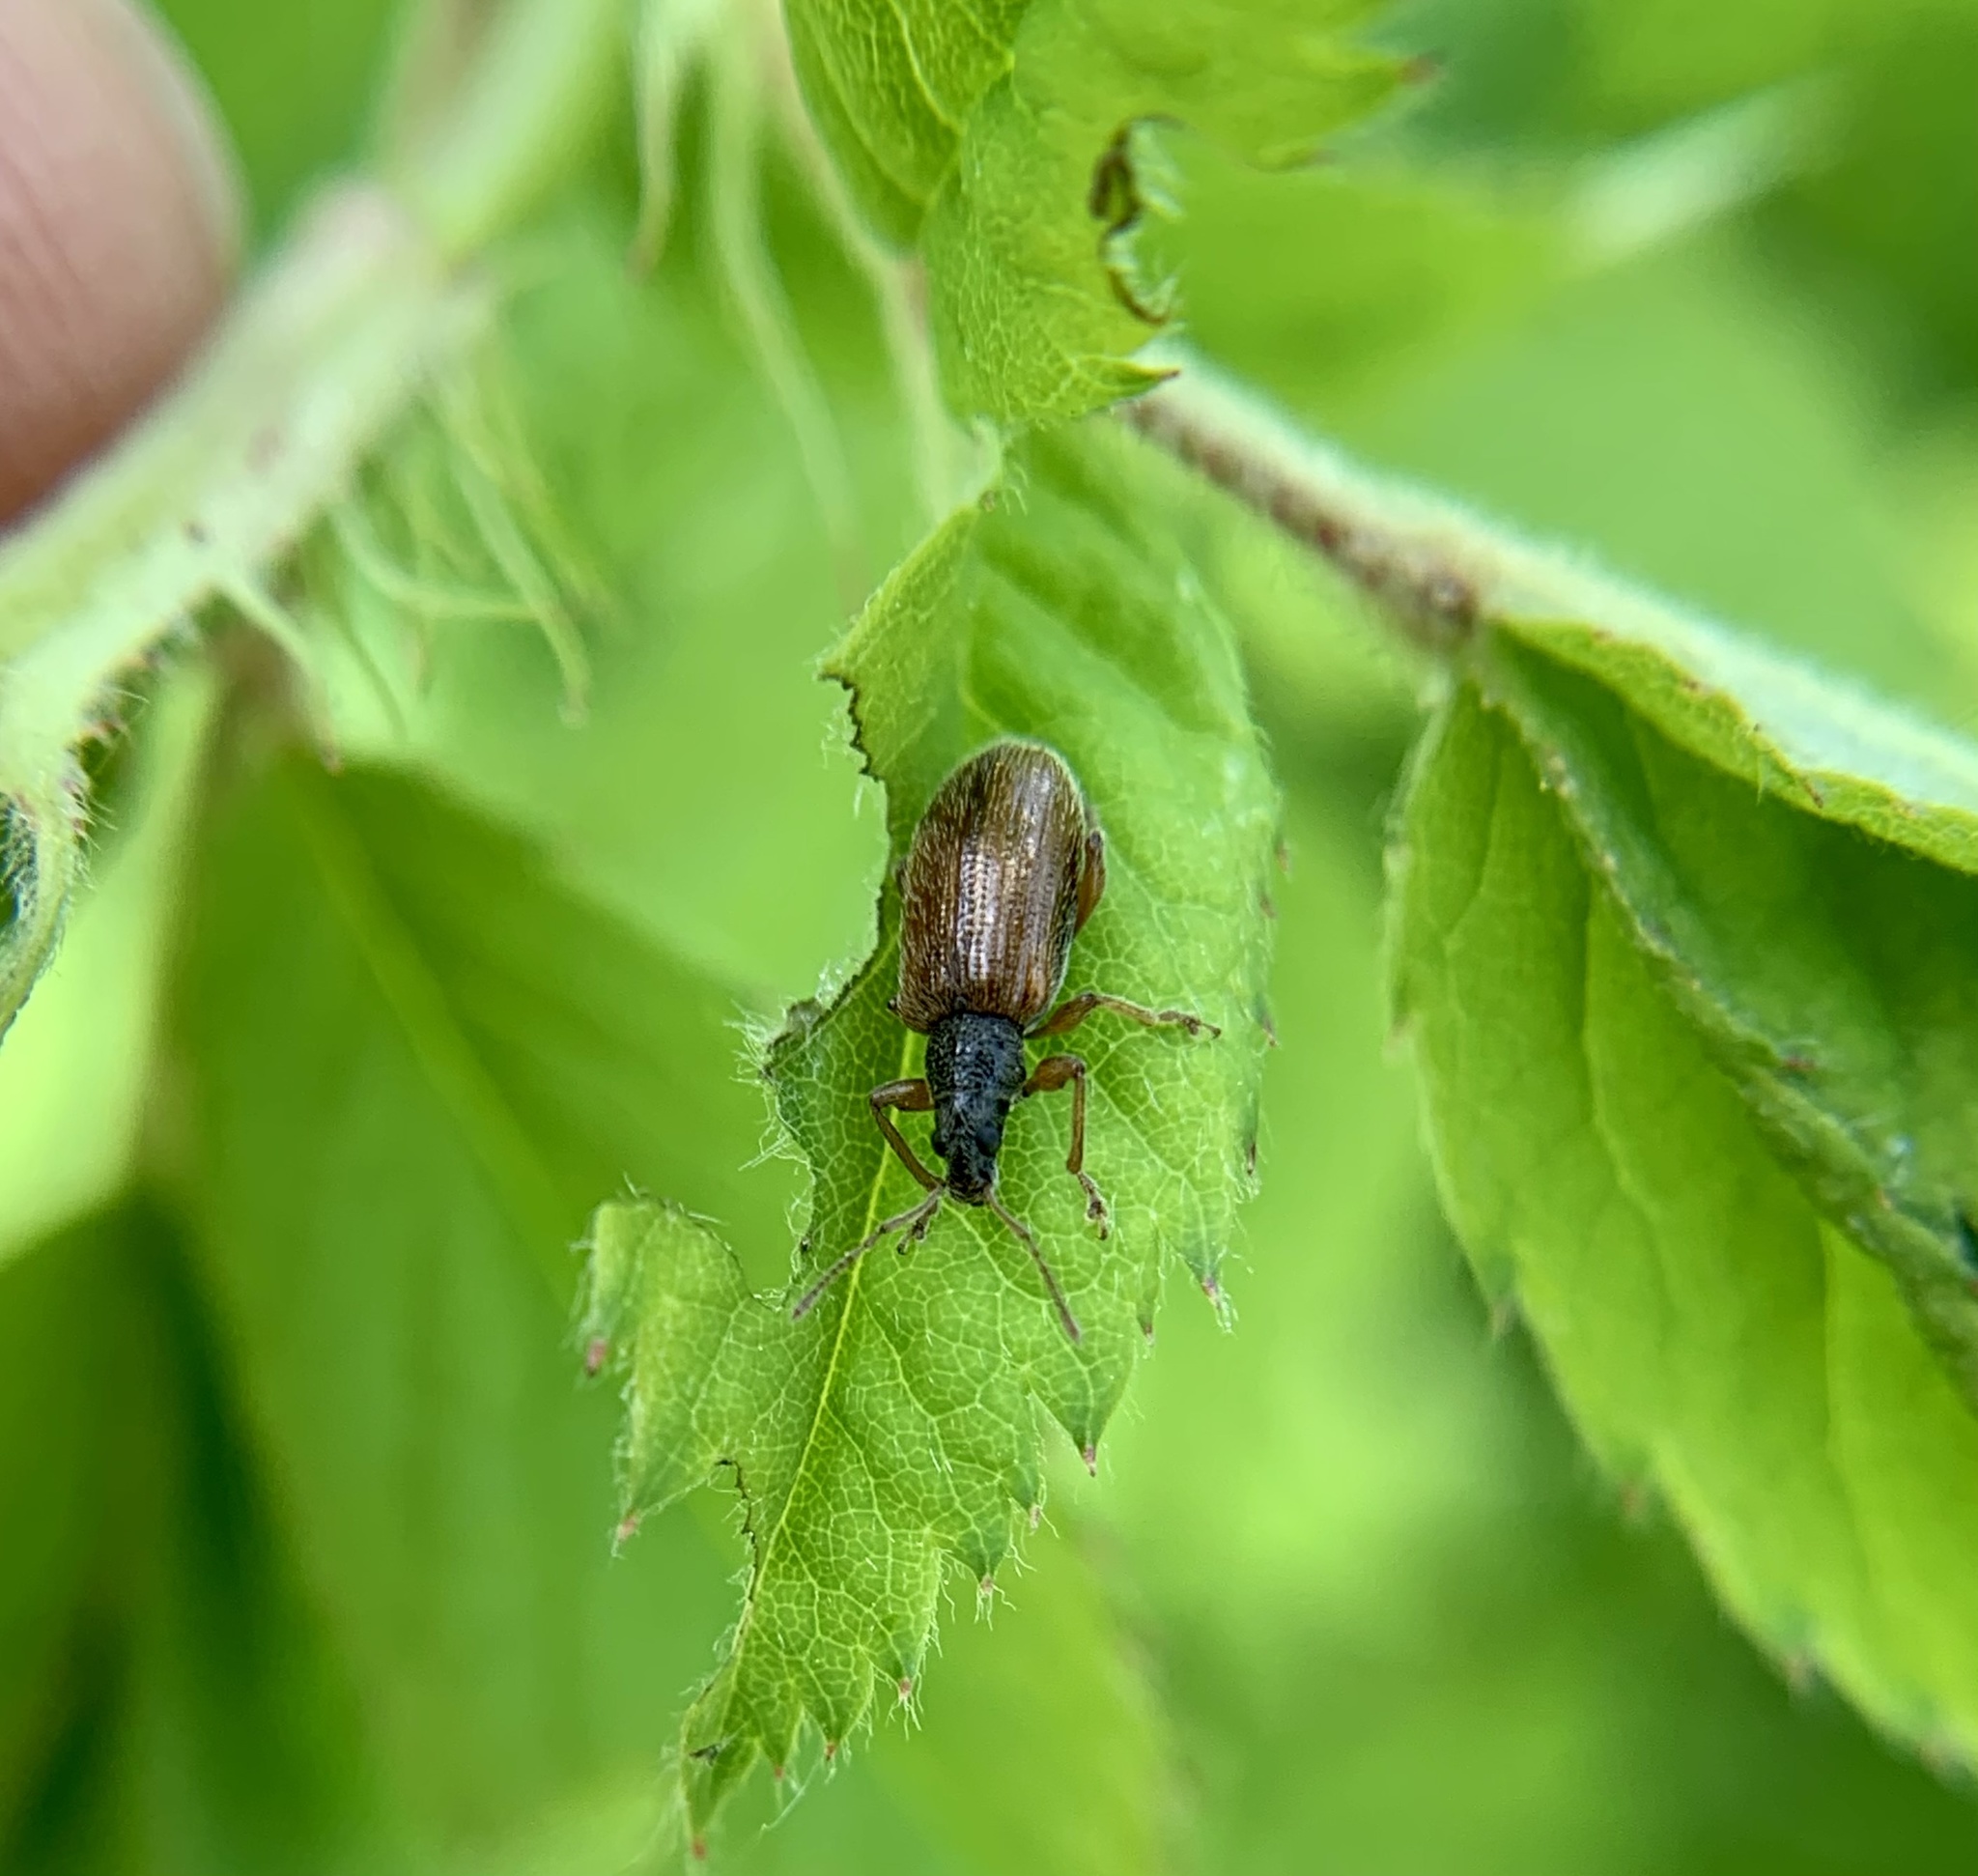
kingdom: Animalia
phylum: Arthropoda
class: Insecta
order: Coleoptera
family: Curculionidae
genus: Phyllobius
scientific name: Phyllobius oblongus
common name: Brown leaf weevil
